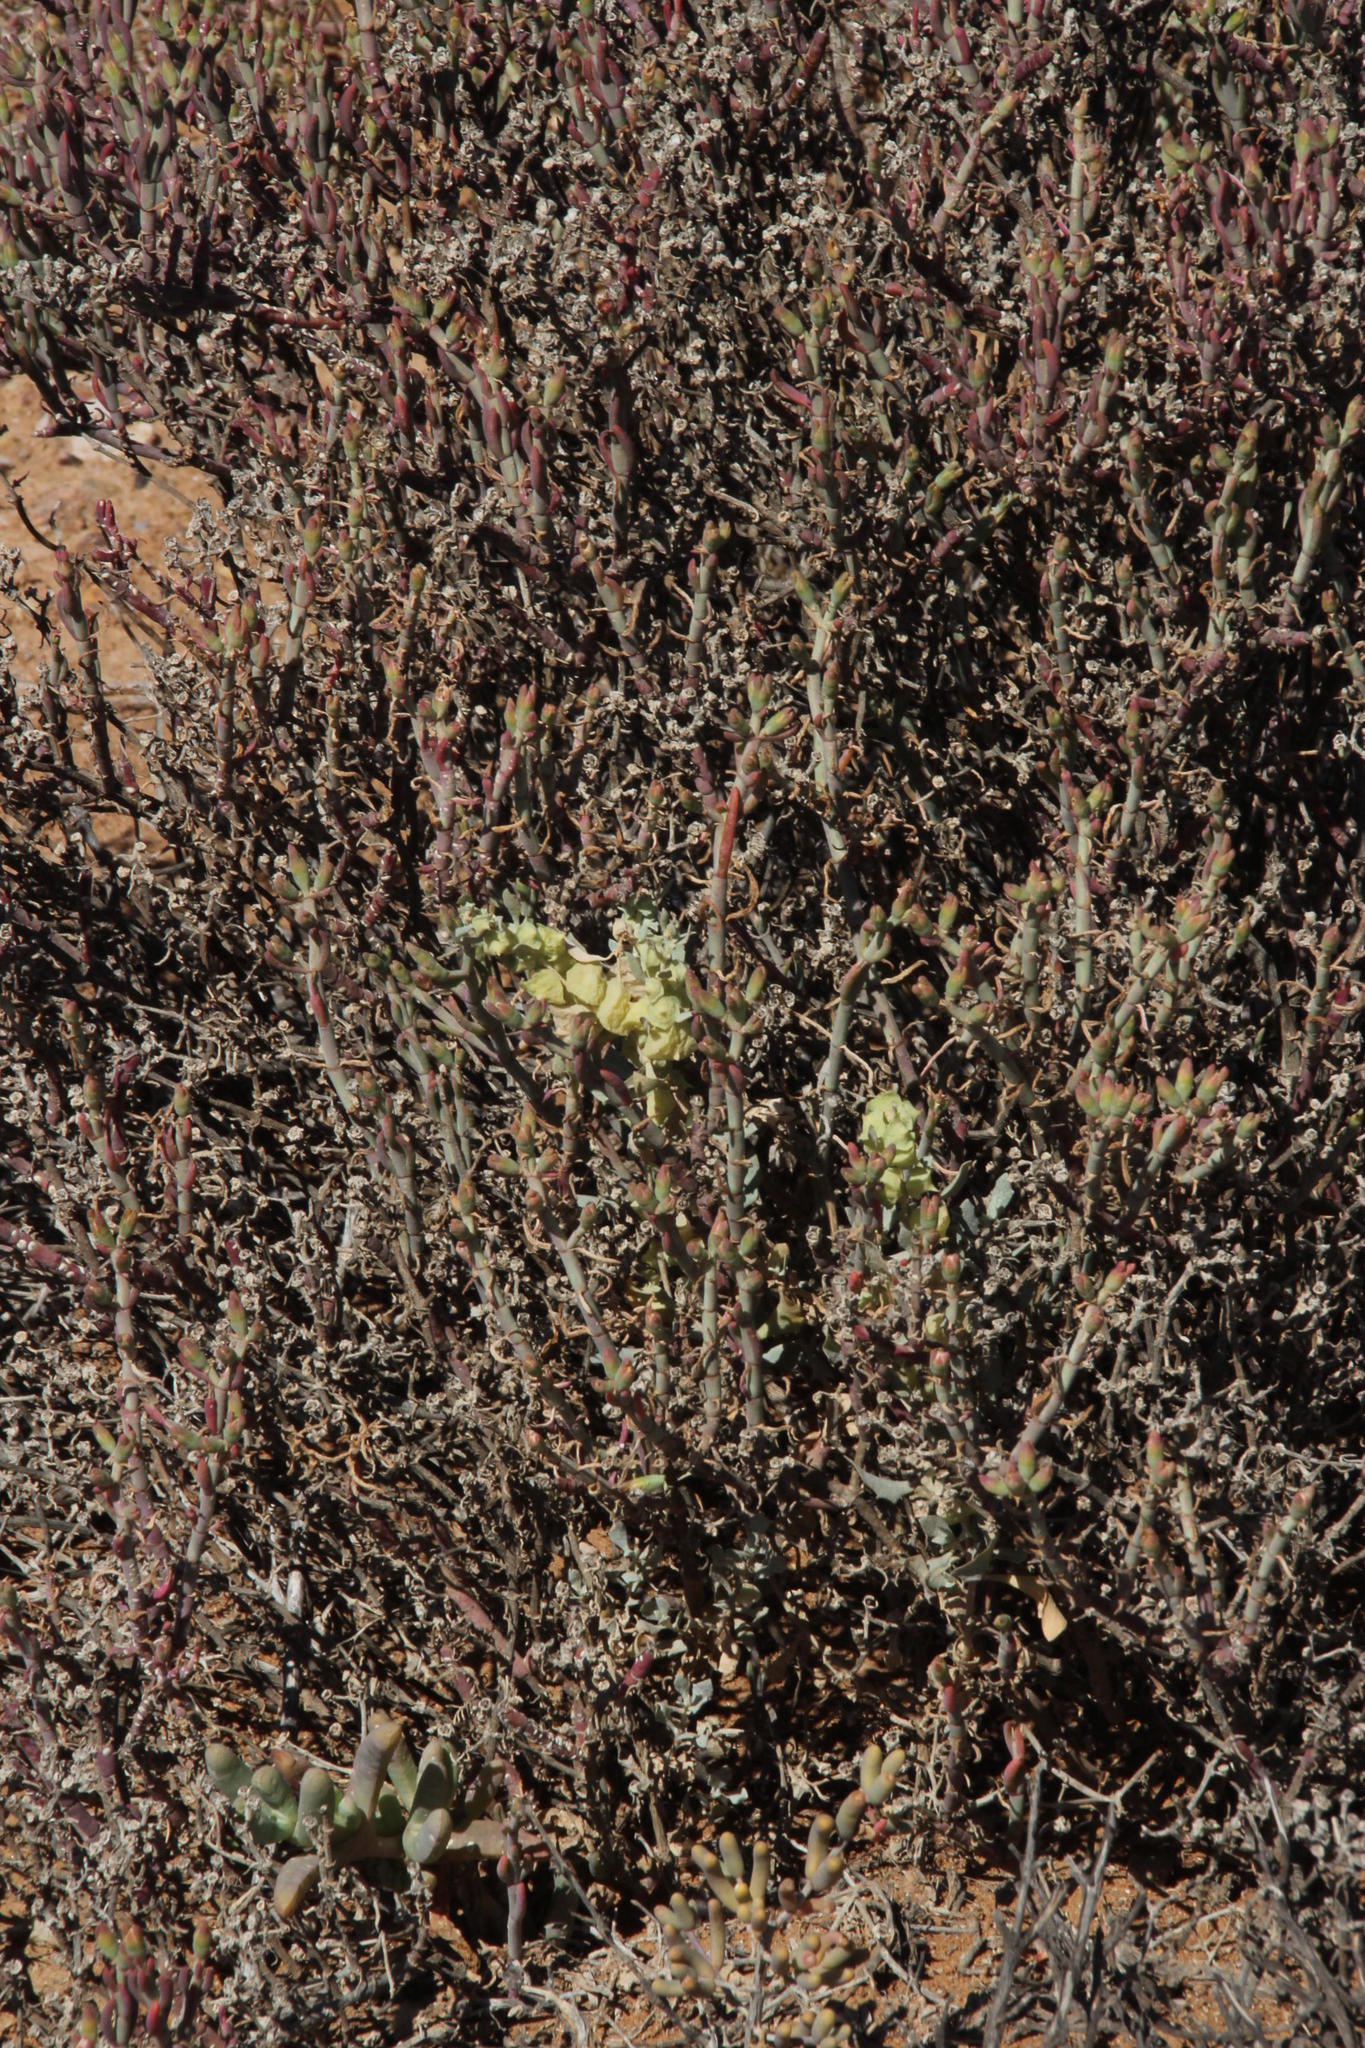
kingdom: Plantae
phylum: Tracheophyta
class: Magnoliopsida
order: Caryophyllales
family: Amaranthaceae
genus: Atriplex
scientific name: Atriplex lindleyi
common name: Lindley's saltbush
